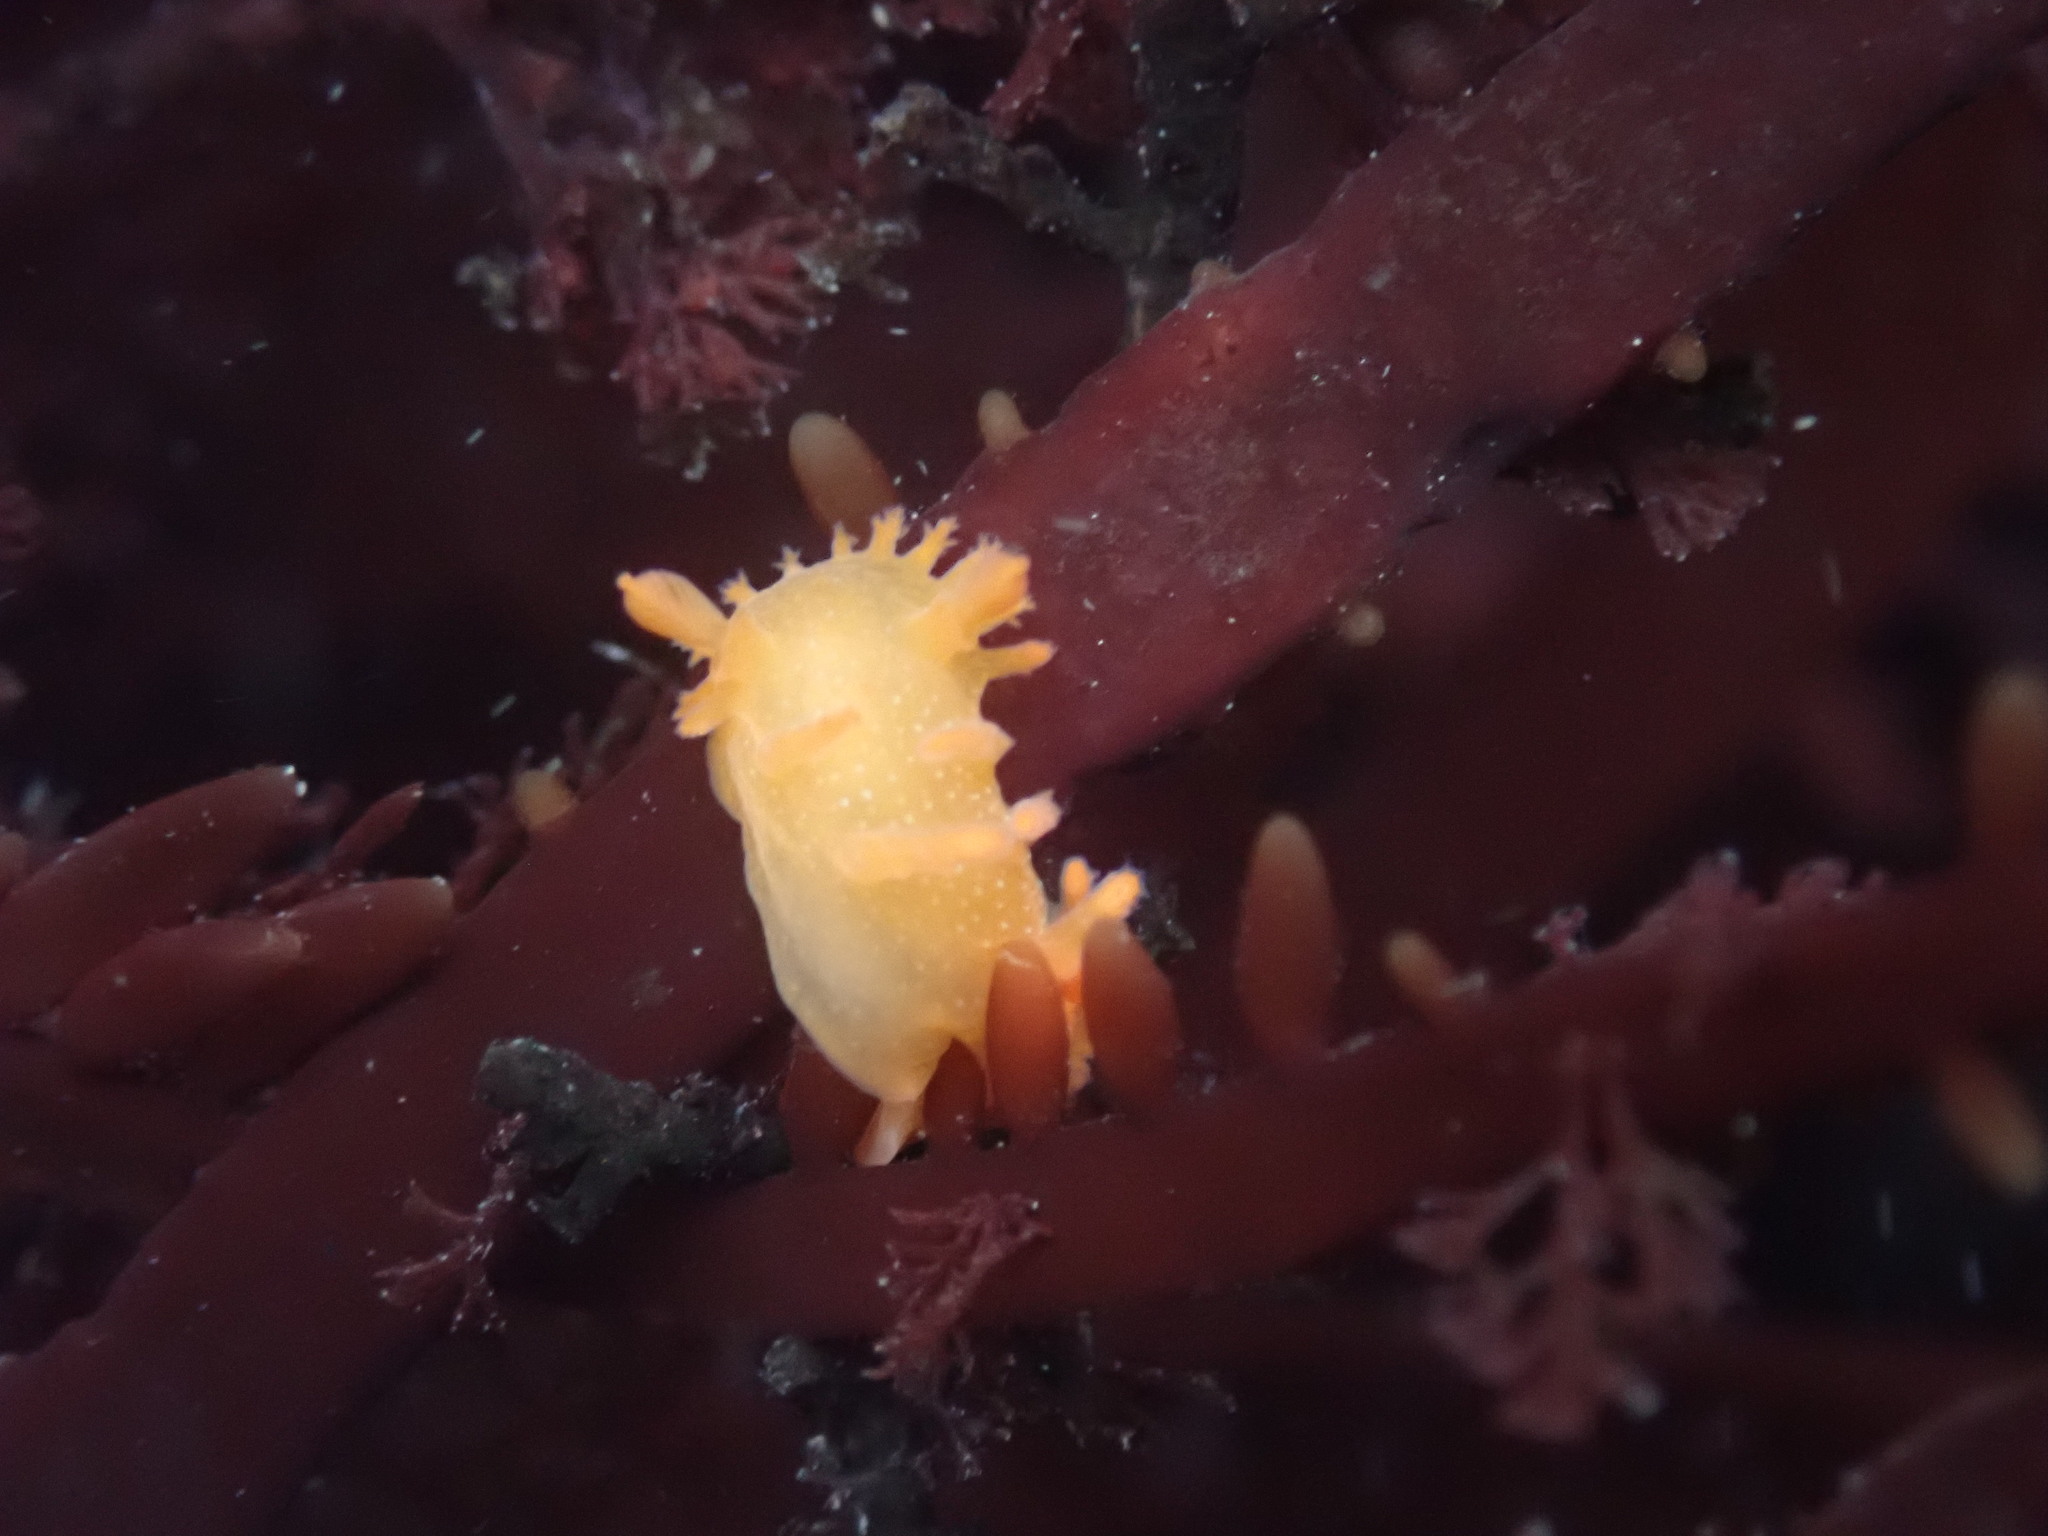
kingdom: Animalia
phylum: Mollusca
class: Gastropoda
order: Nudibranchia
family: Polyceridae
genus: Triopha
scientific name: Triopha maculata
